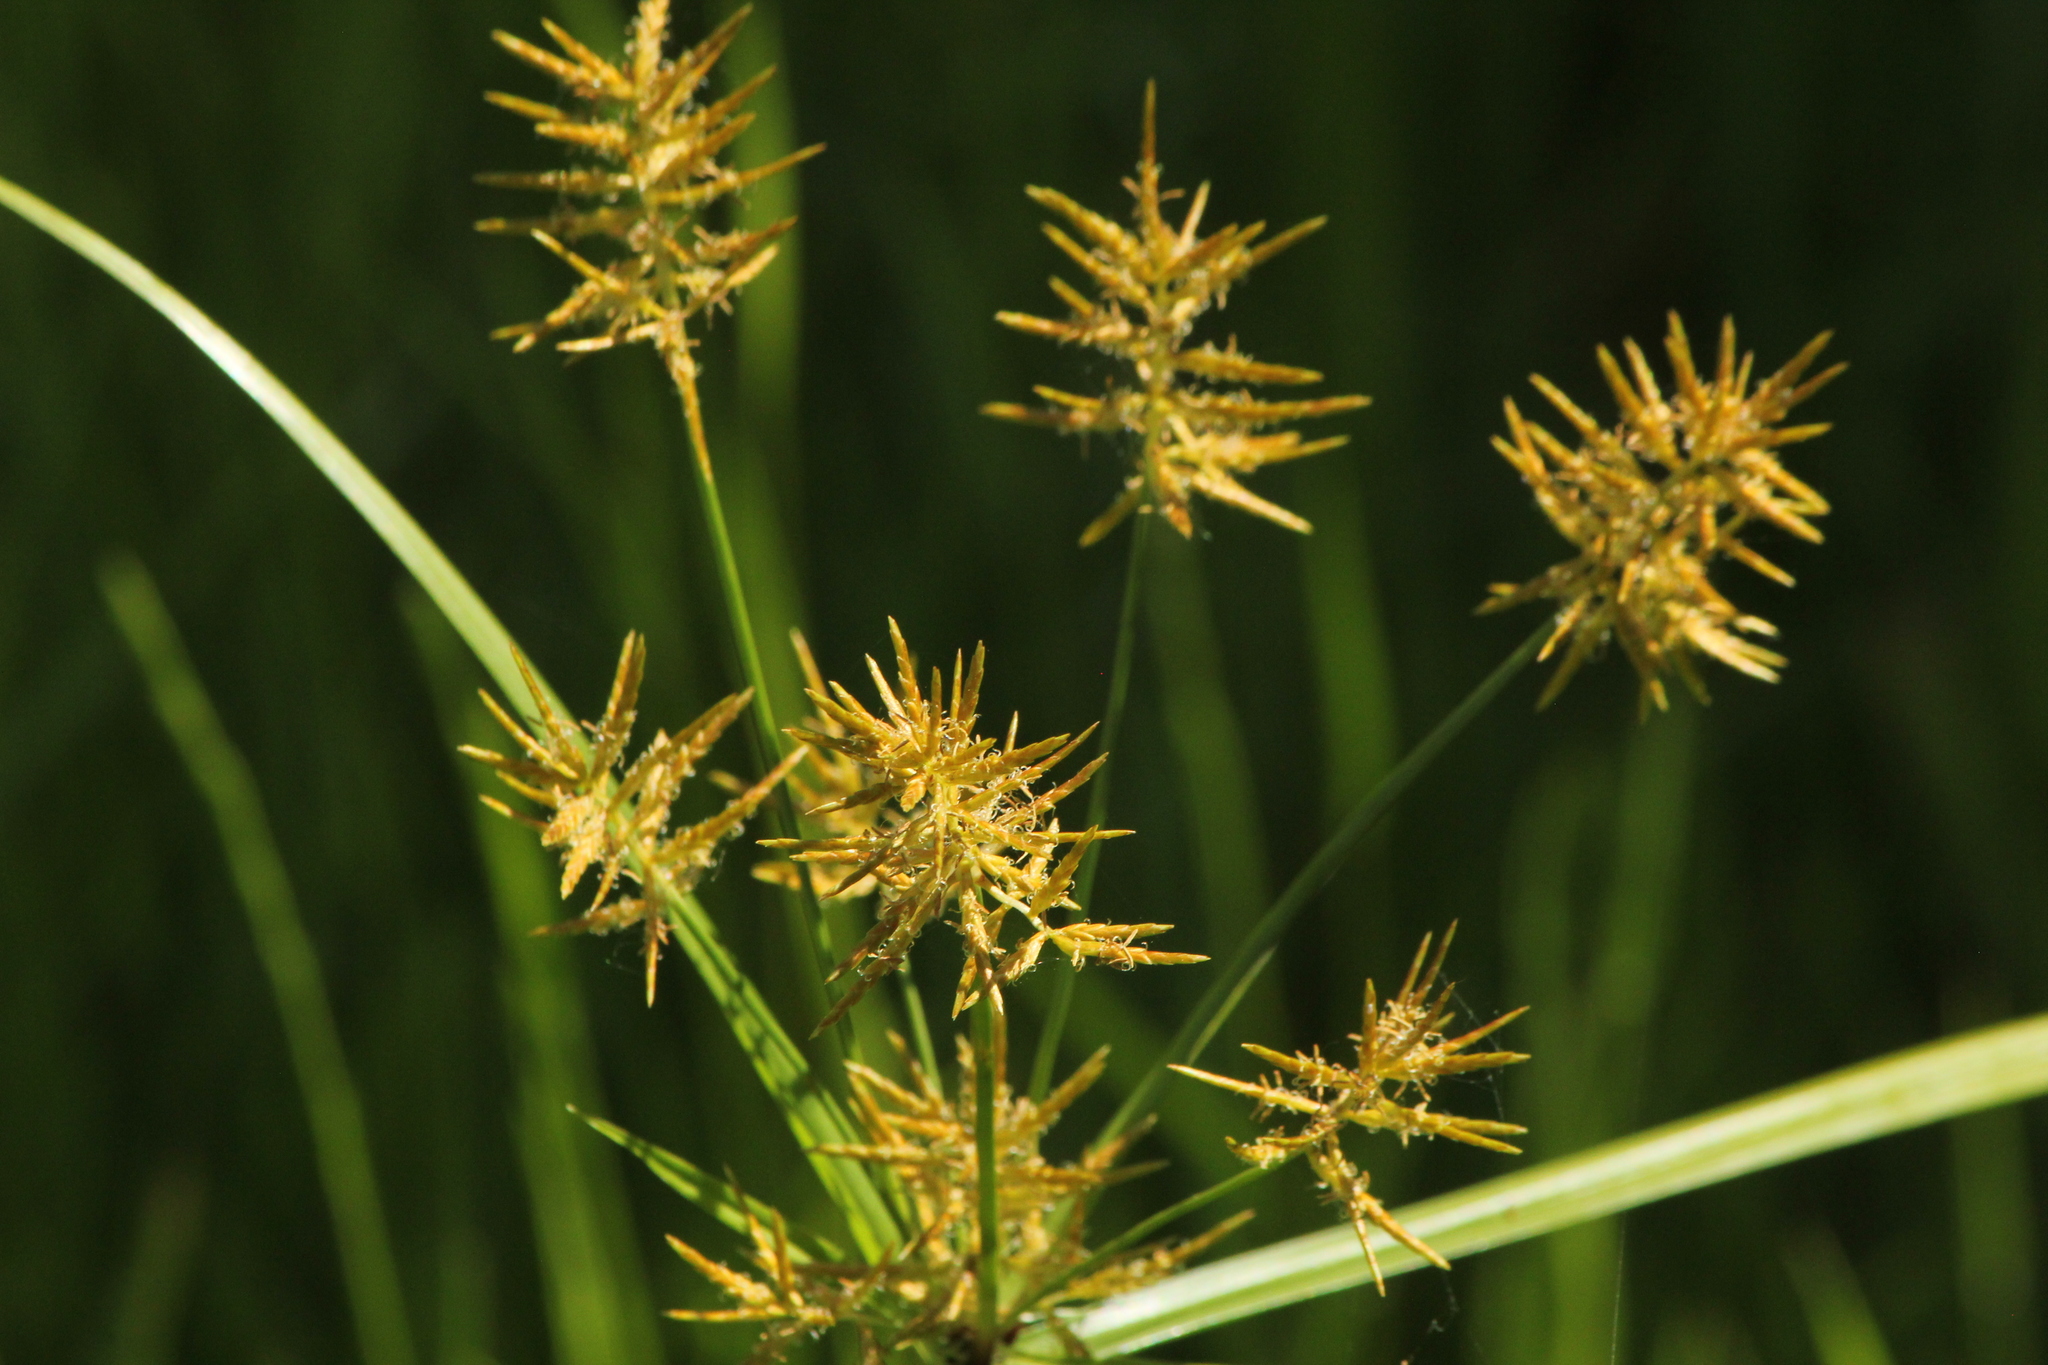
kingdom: Plantae
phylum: Tracheophyta
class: Liliopsida
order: Poales
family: Cyperaceae
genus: Cyperus
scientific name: Cyperus esculentus
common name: Yellow nutsedge
